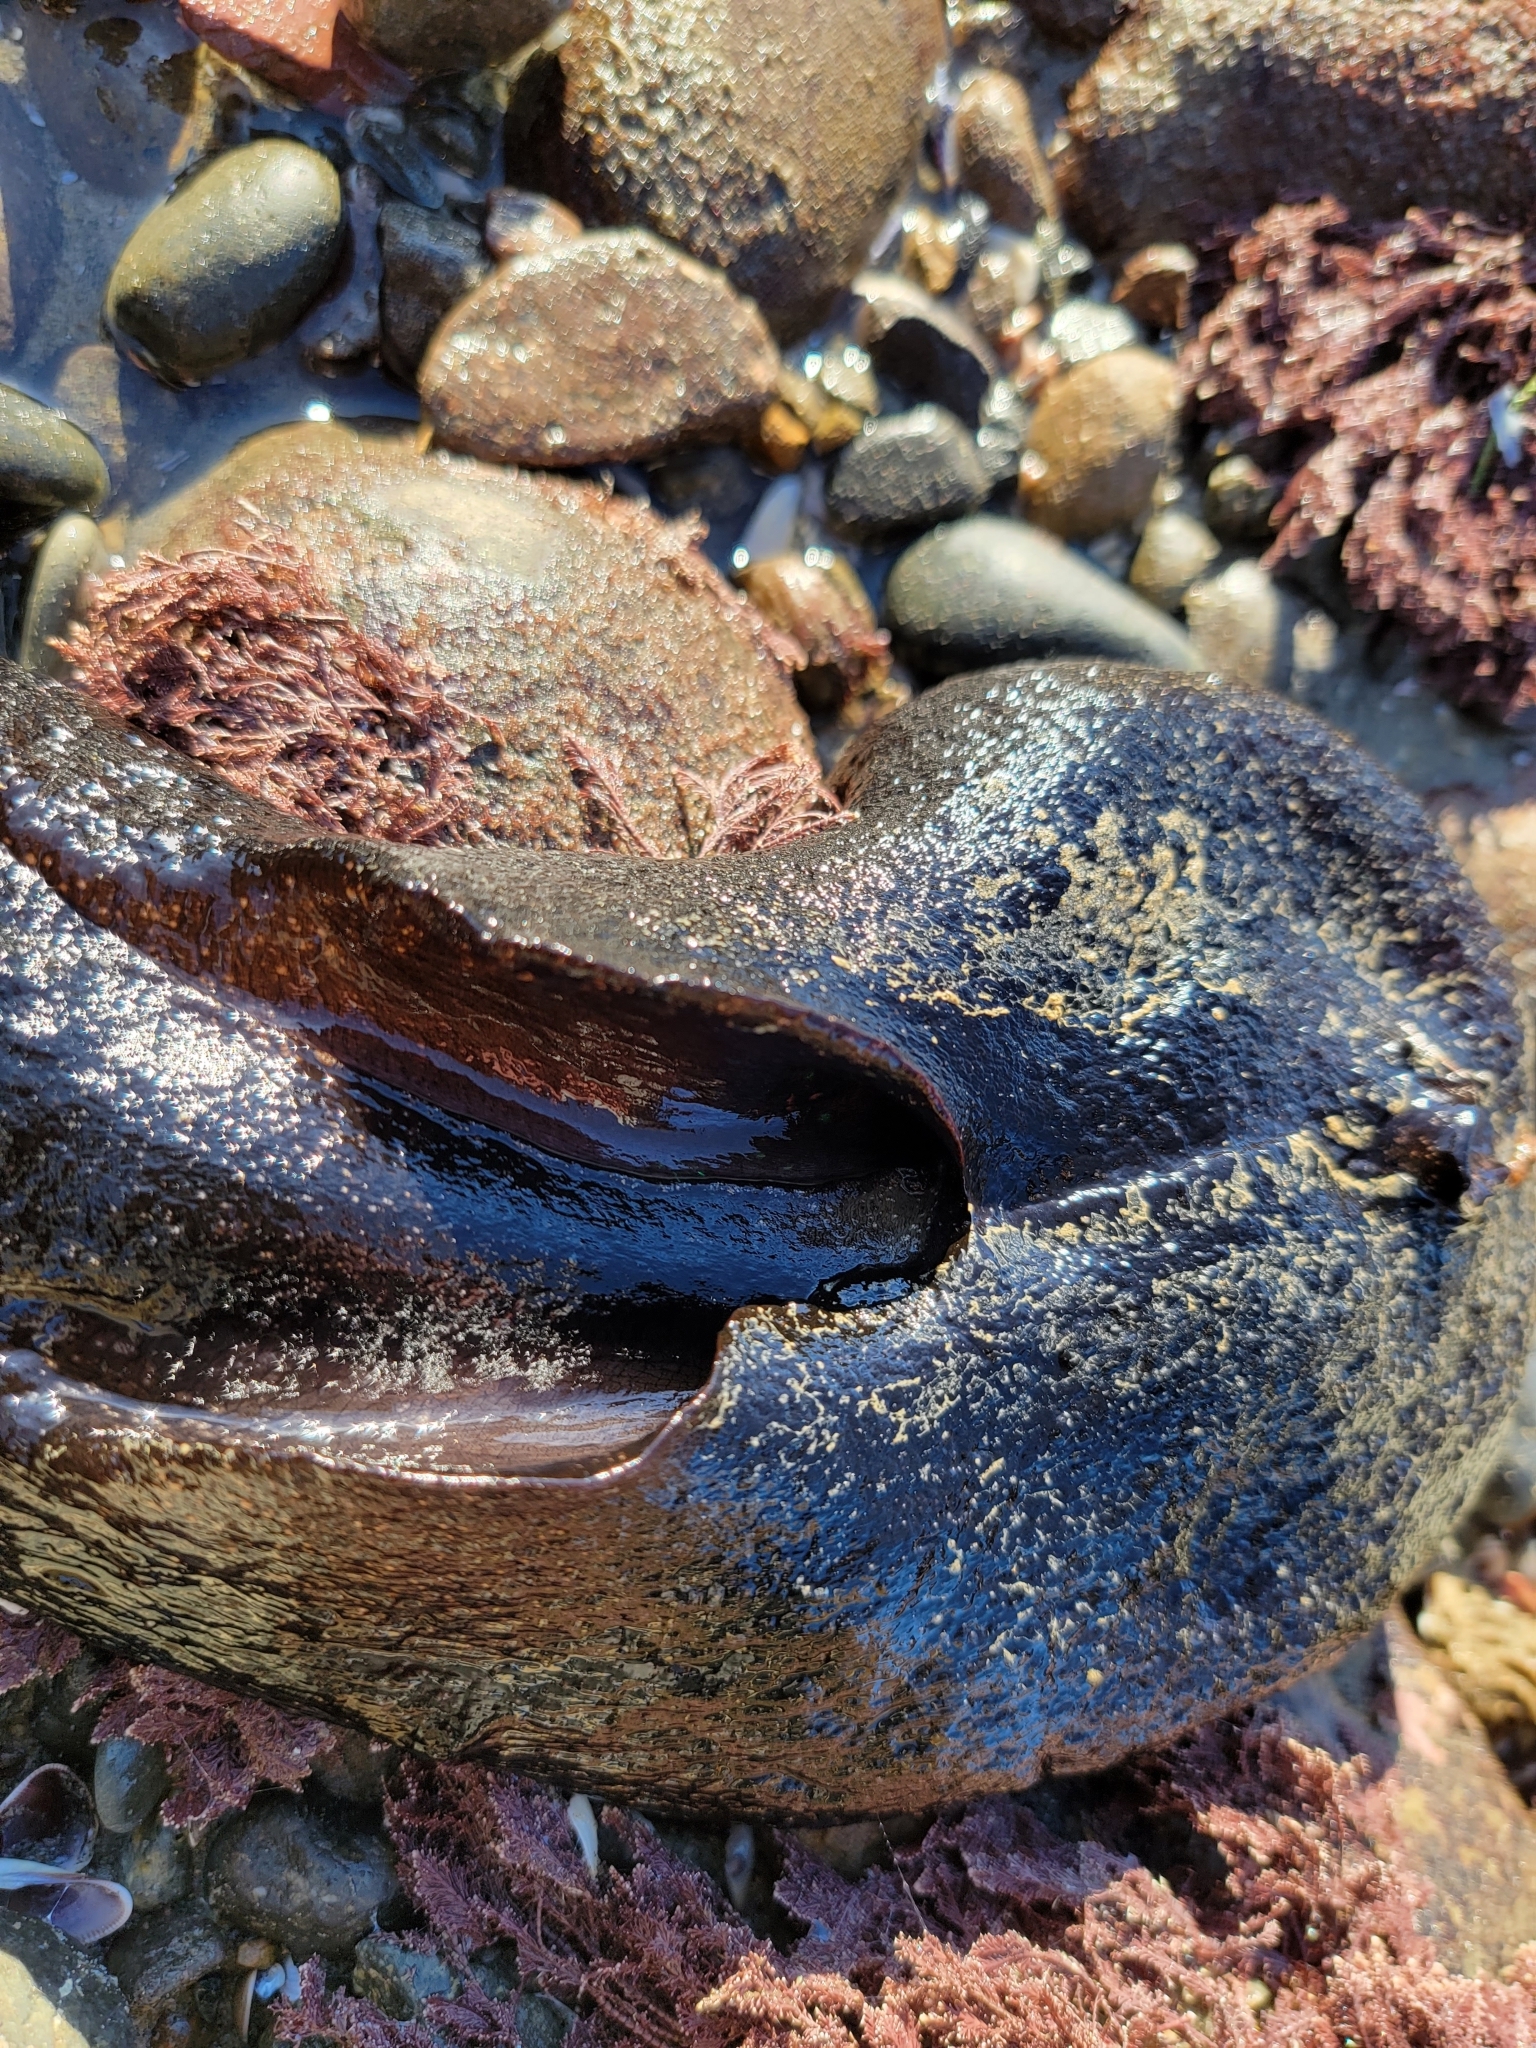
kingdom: Animalia
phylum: Mollusca
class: Gastropoda
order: Aplysiida
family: Aplysiidae
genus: Aplysia
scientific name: Aplysia vaccaria
